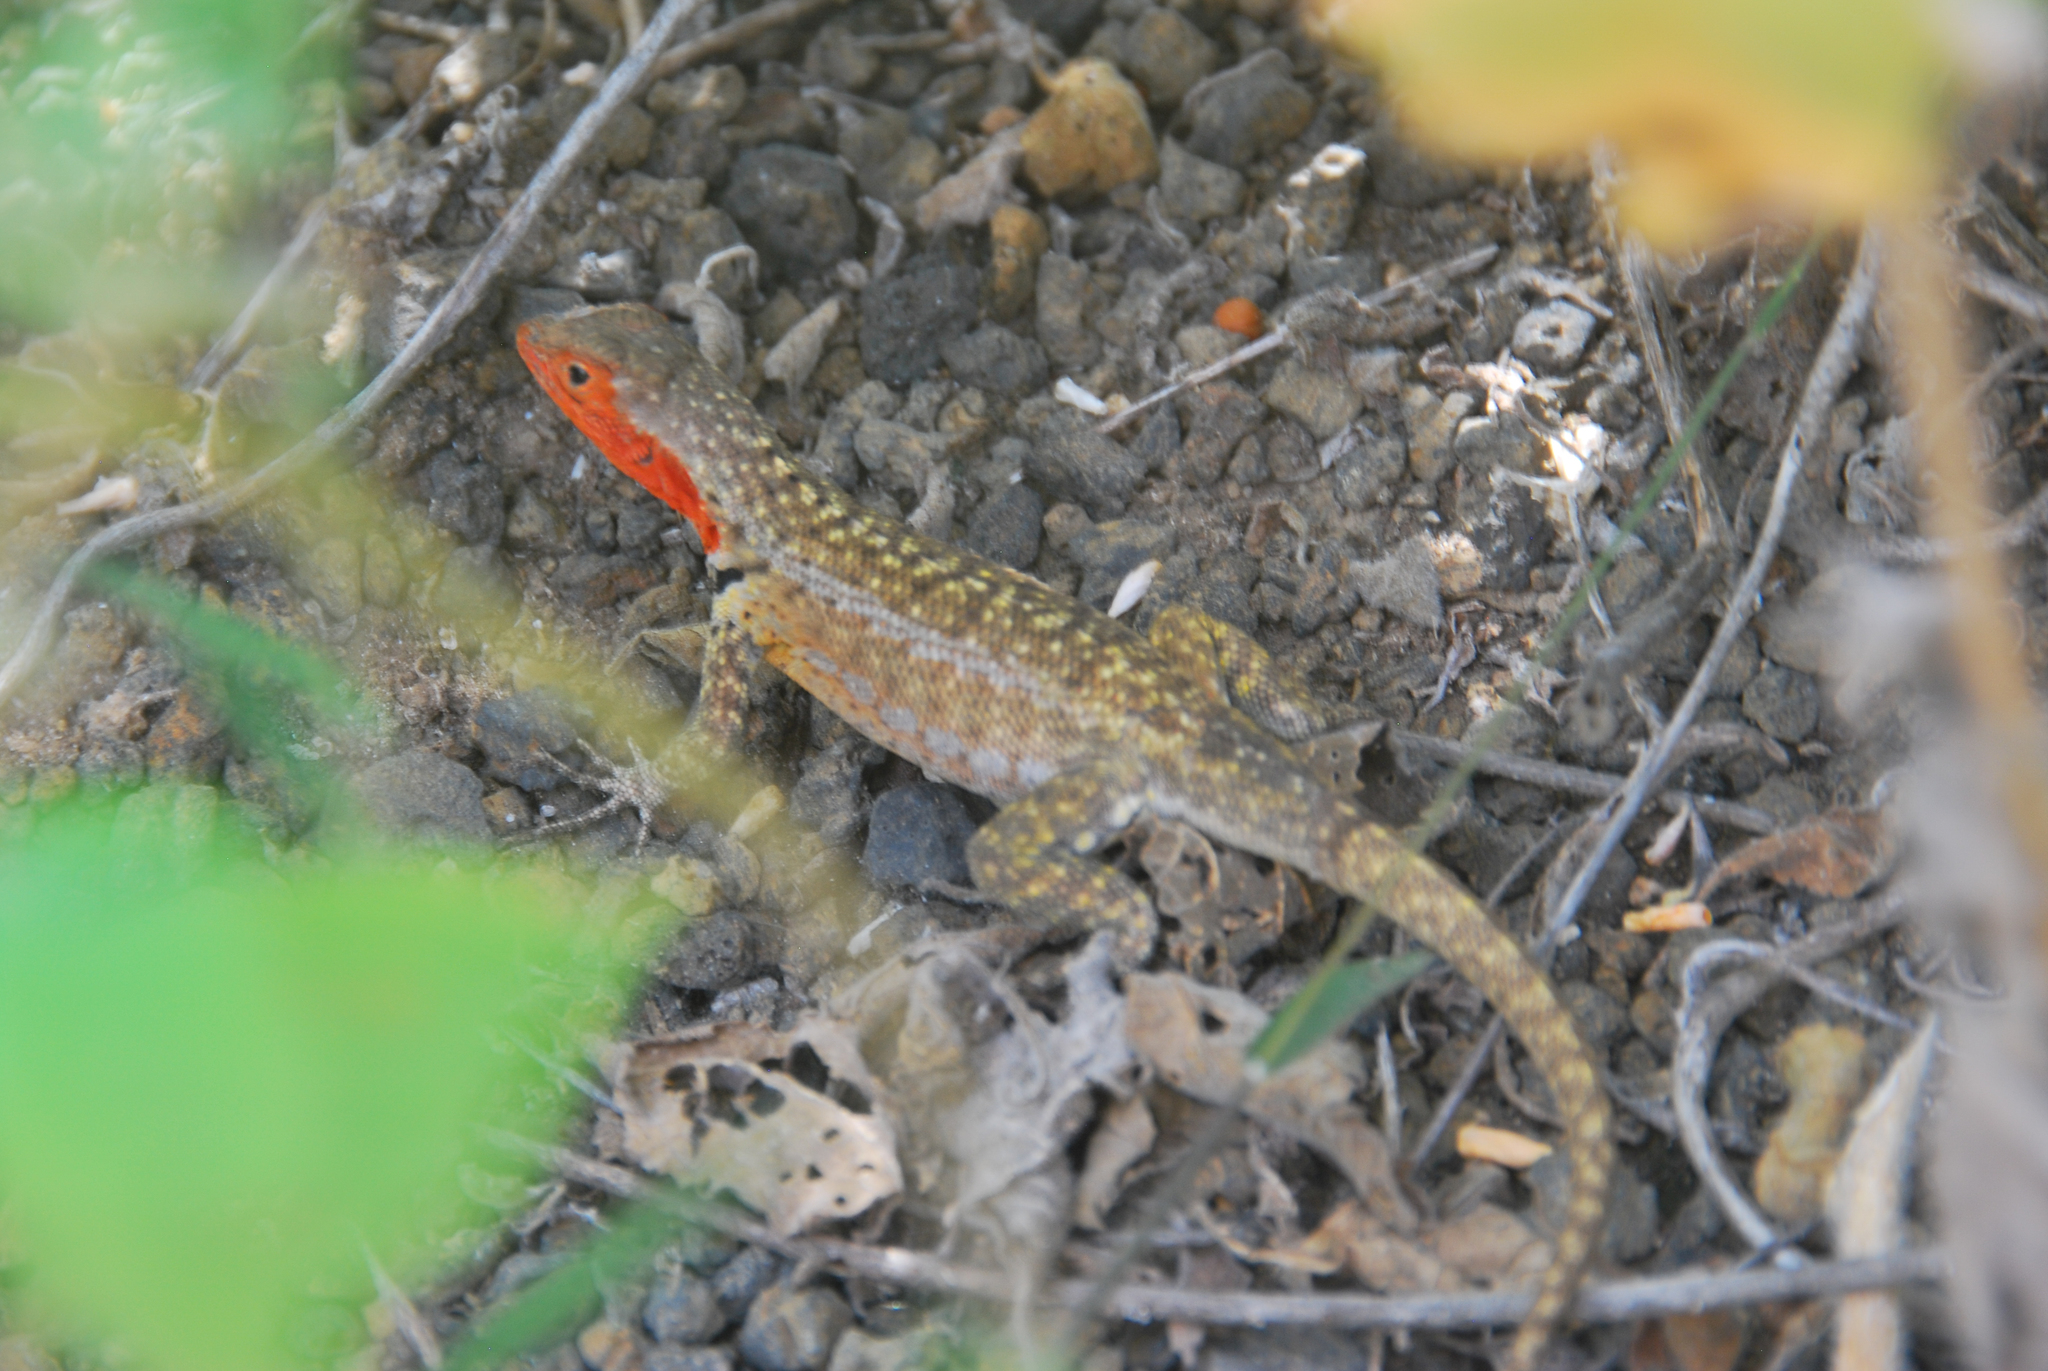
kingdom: Animalia
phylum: Chordata
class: Squamata
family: Tropiduridae
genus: Microlophus
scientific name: Microlophus grayii
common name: Floreana lava lizard
